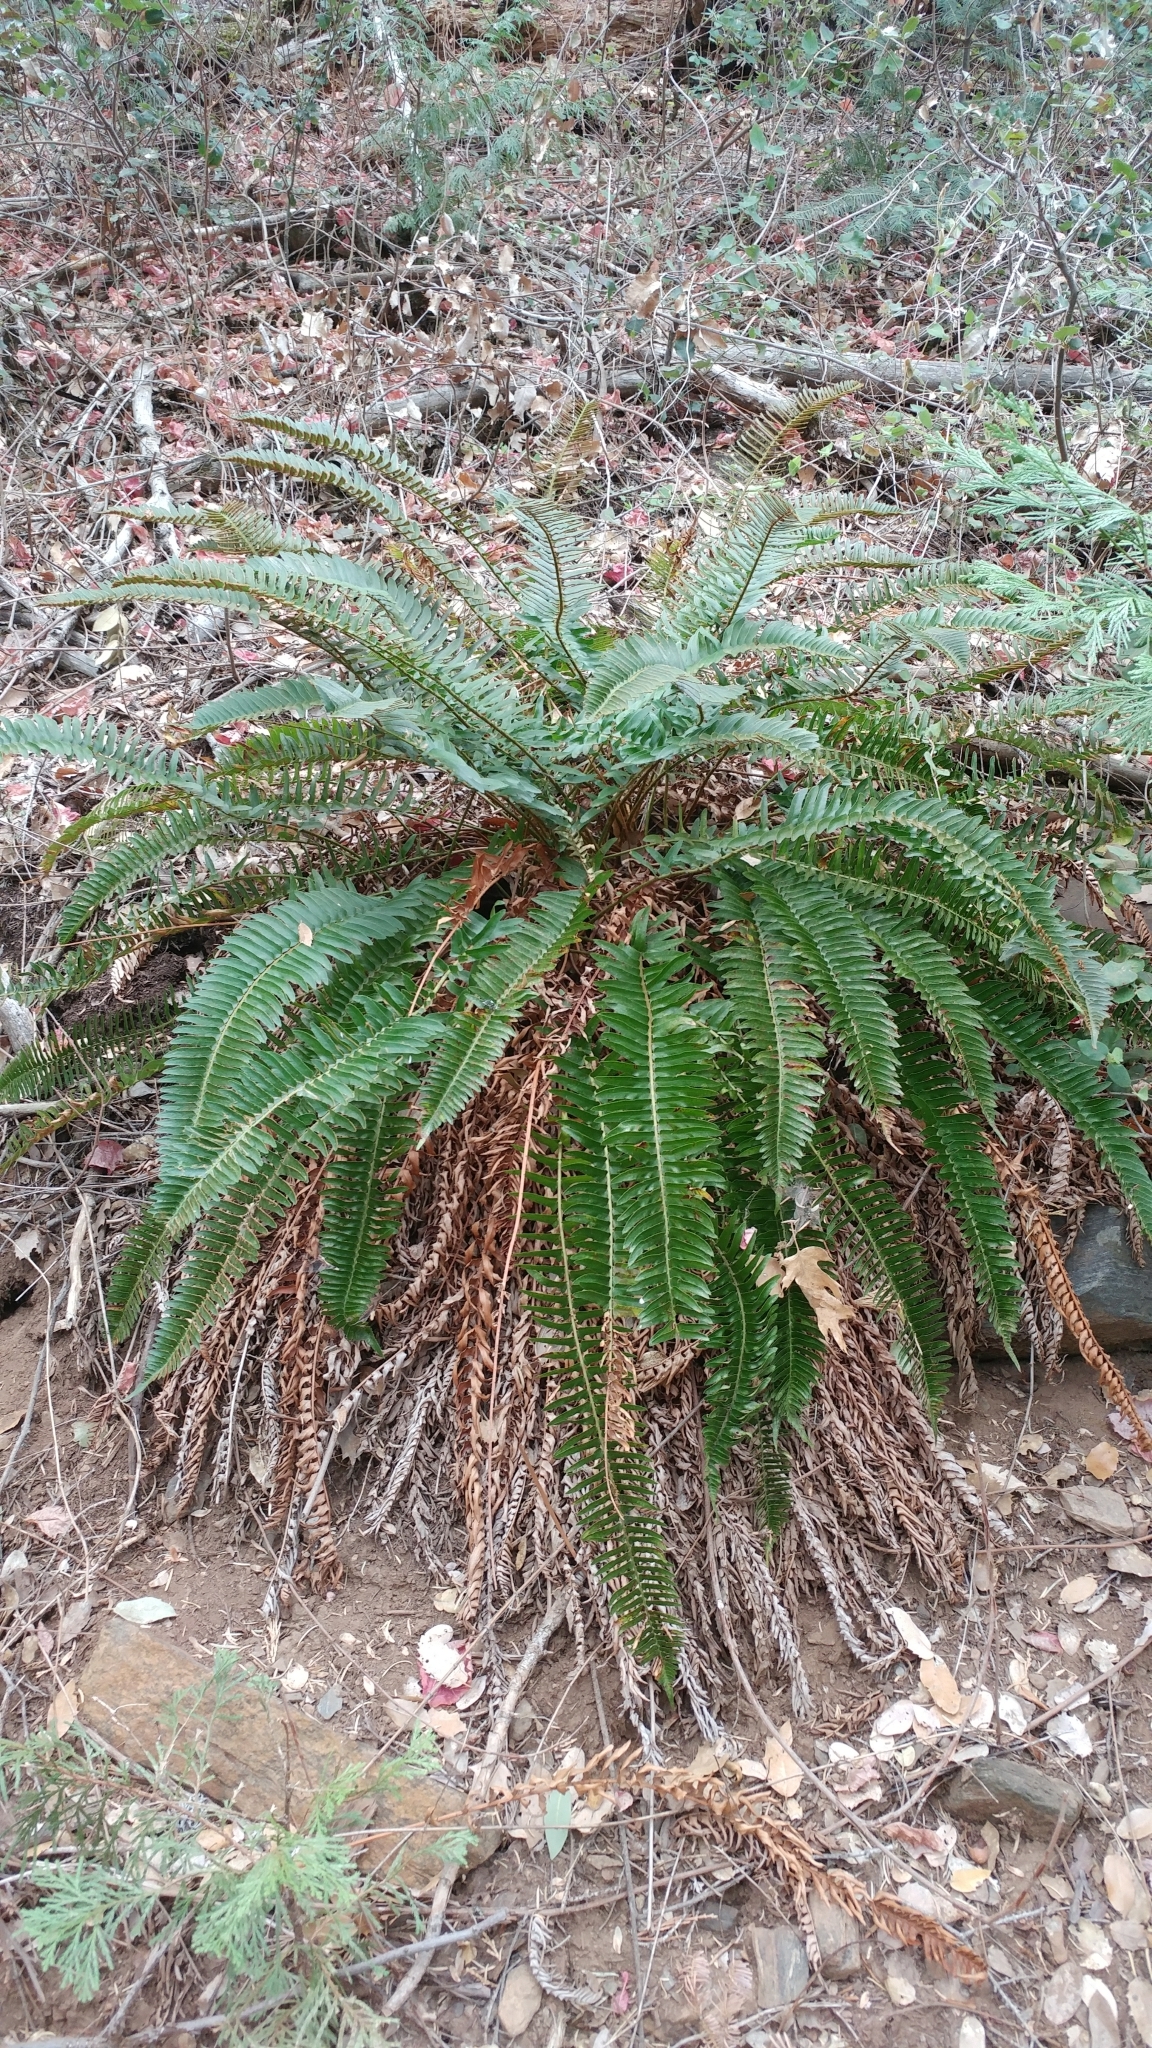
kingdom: Plantae
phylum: Tracheophyta
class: Polypodiopsida
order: Polypodiales
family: Dryopteridaceae
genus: Polystichum
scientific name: Polystichum imbricans
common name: Dwarf western sword fern
